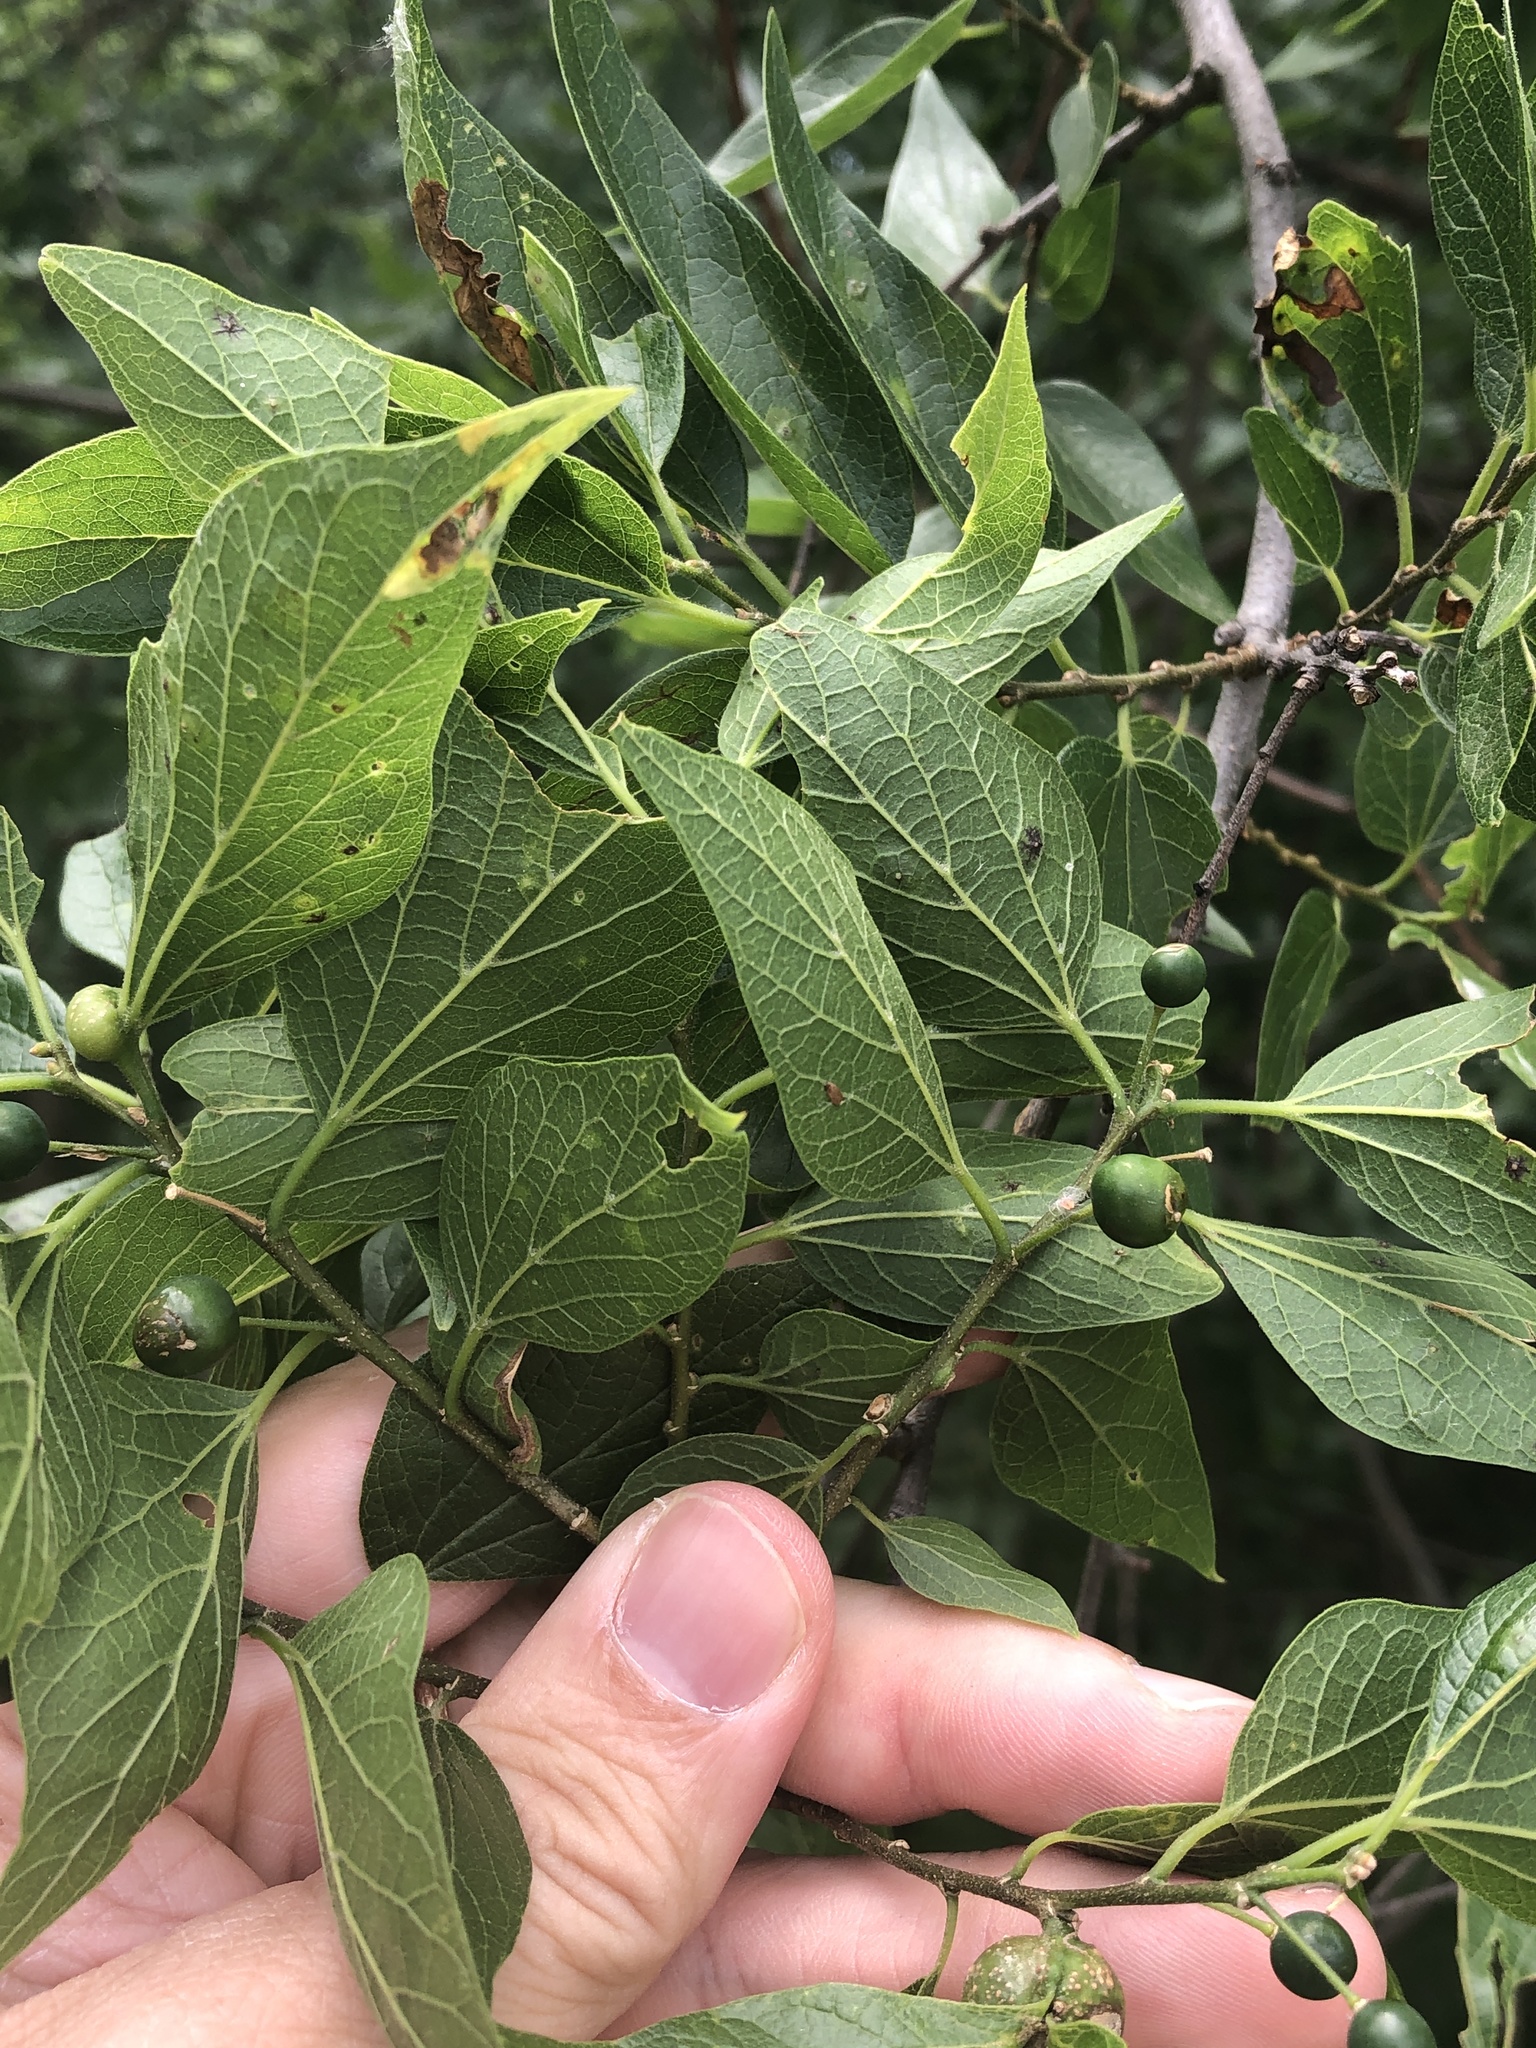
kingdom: Plantae
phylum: Tracheophyta
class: Magnoliopsida
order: Rosales
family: Cannabaceae
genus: Celtis
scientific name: Celtis laevigata
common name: Sugarberry
